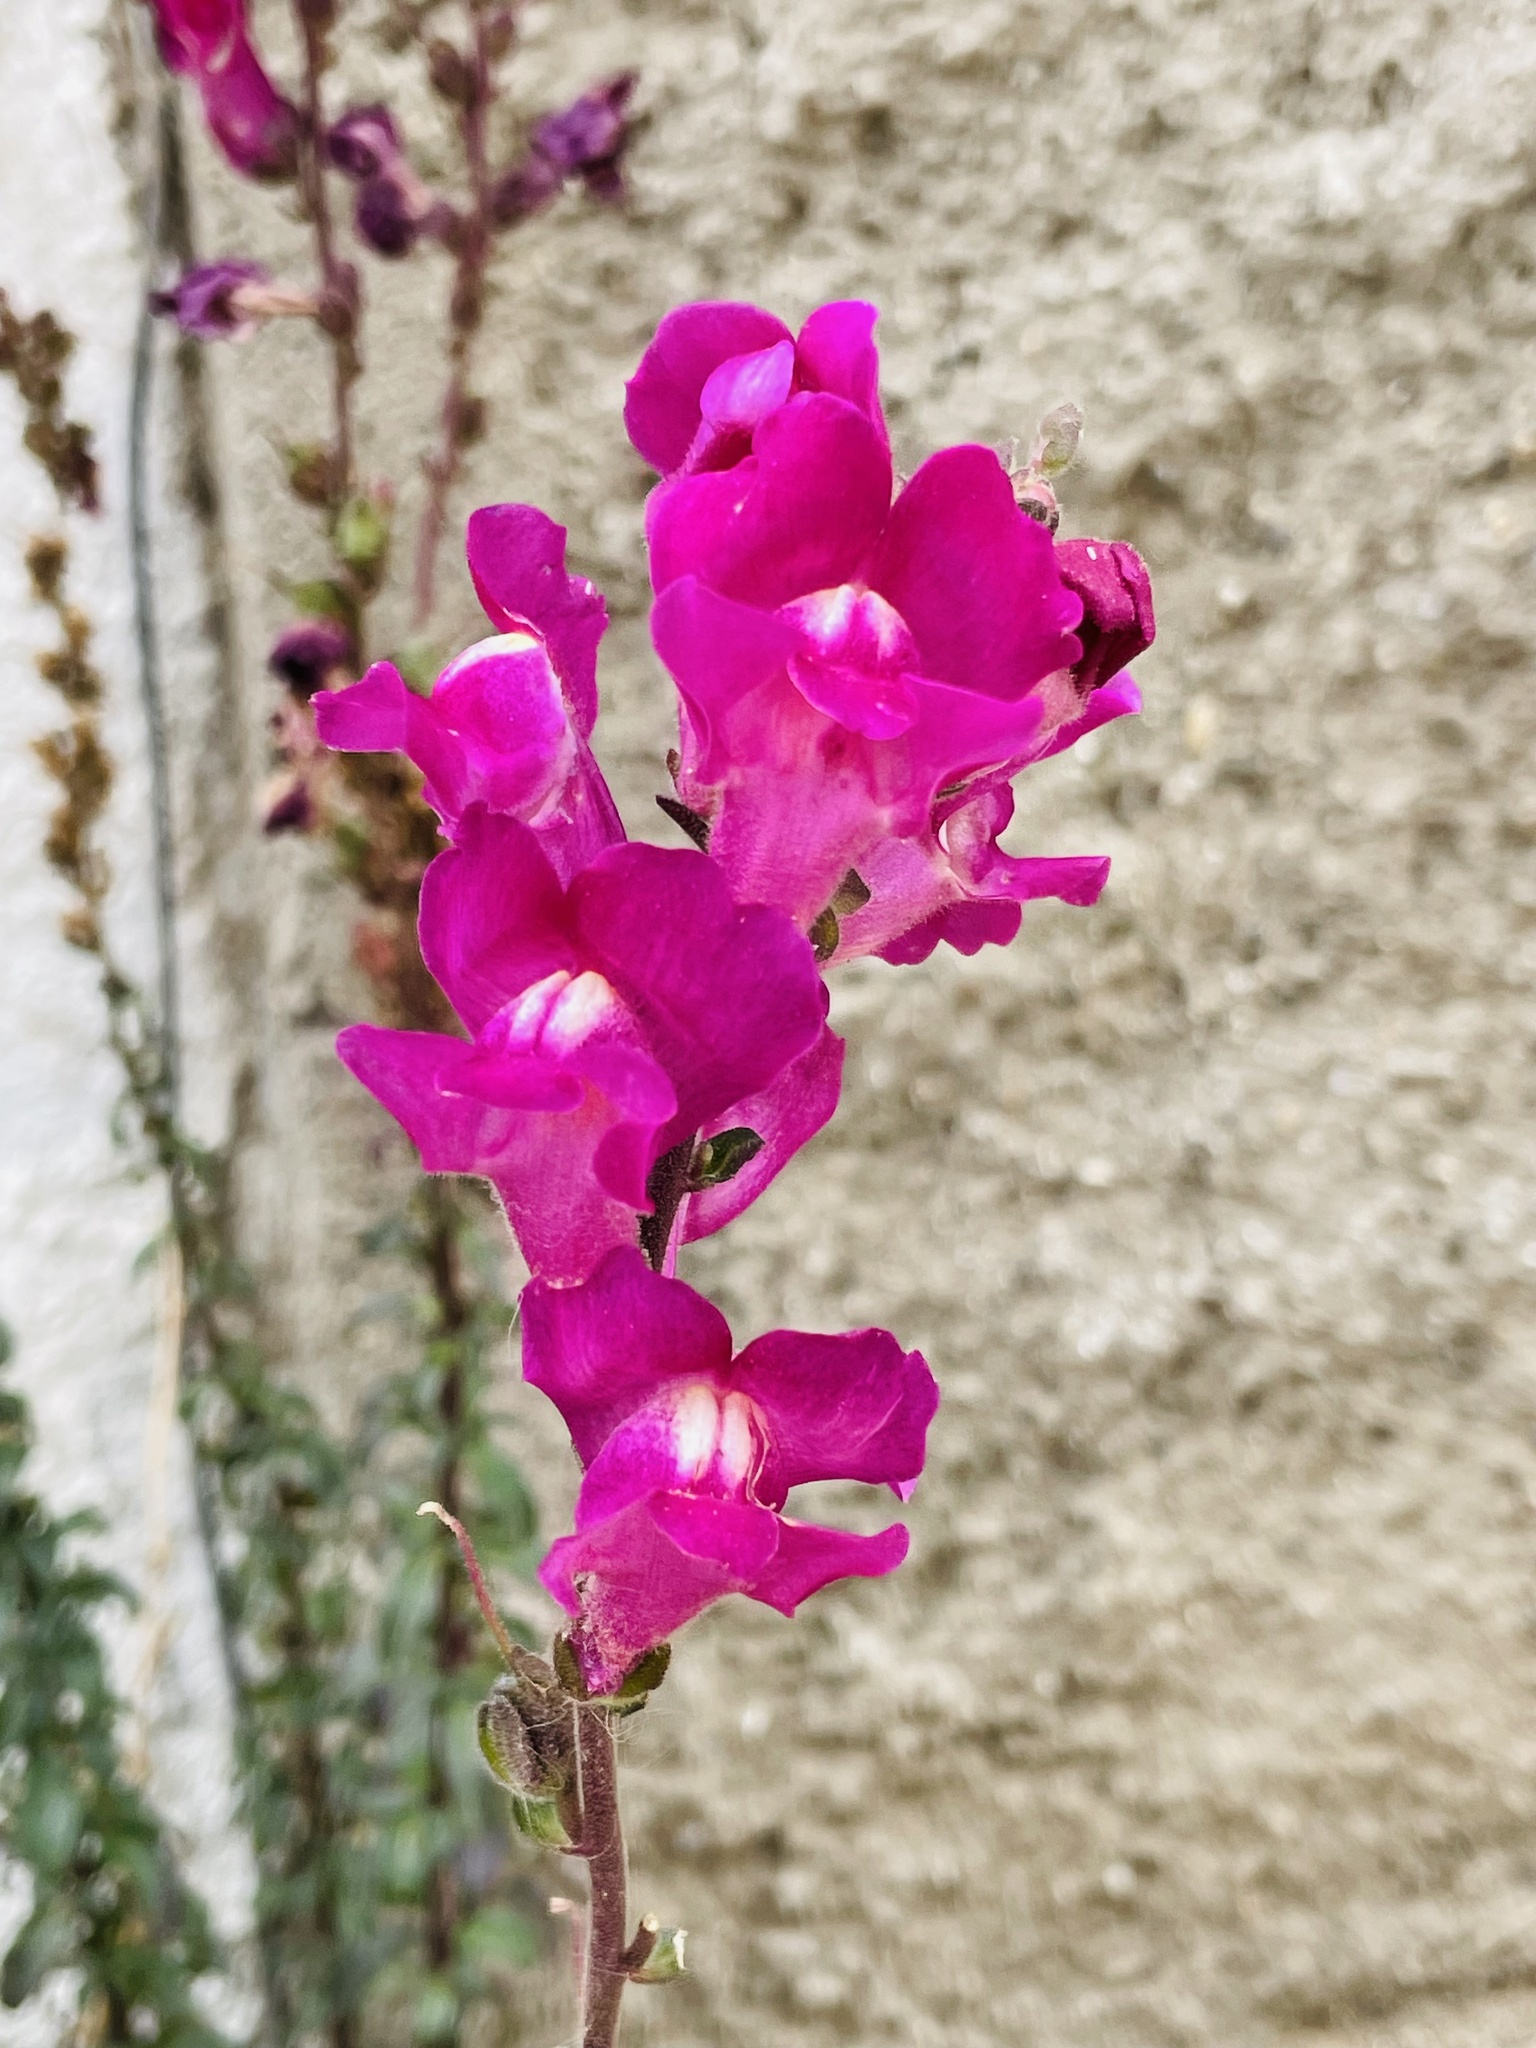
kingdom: Plantae
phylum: Tracheophyta
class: Magnoliopsida
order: Lamiales
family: Plantaginaceae
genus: Antirrhinum
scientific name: Antirrhinum majus
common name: Snapdragon
